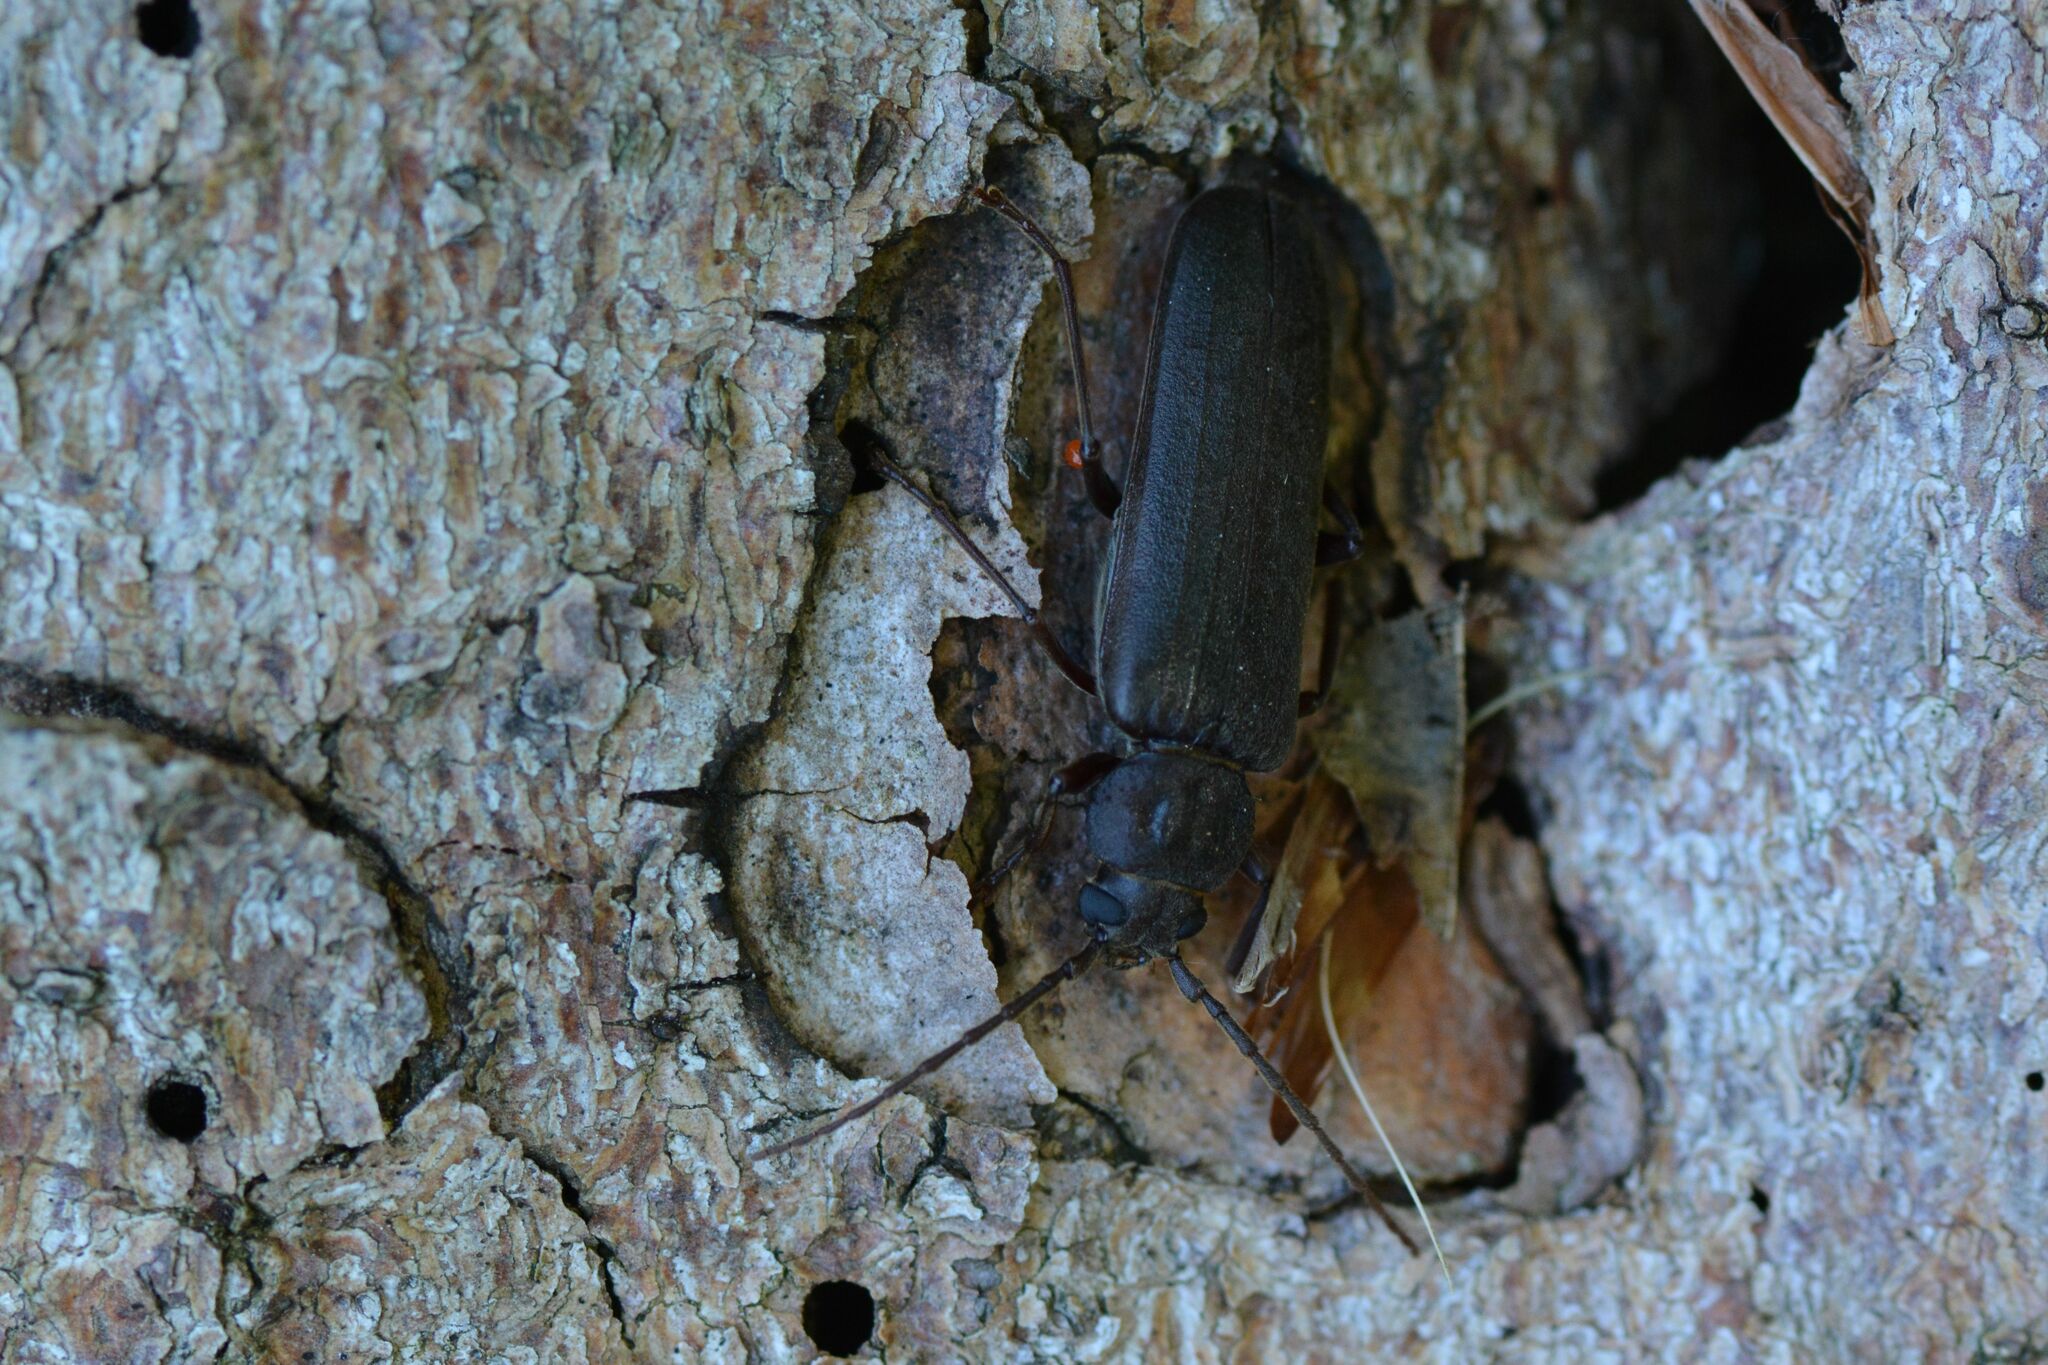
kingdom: Animalia
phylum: Arthropoda
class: Insecta
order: Coleoptera
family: Cerambycidae
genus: Arhopalus
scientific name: Arhopalus rusticus
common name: Rust pine borer
